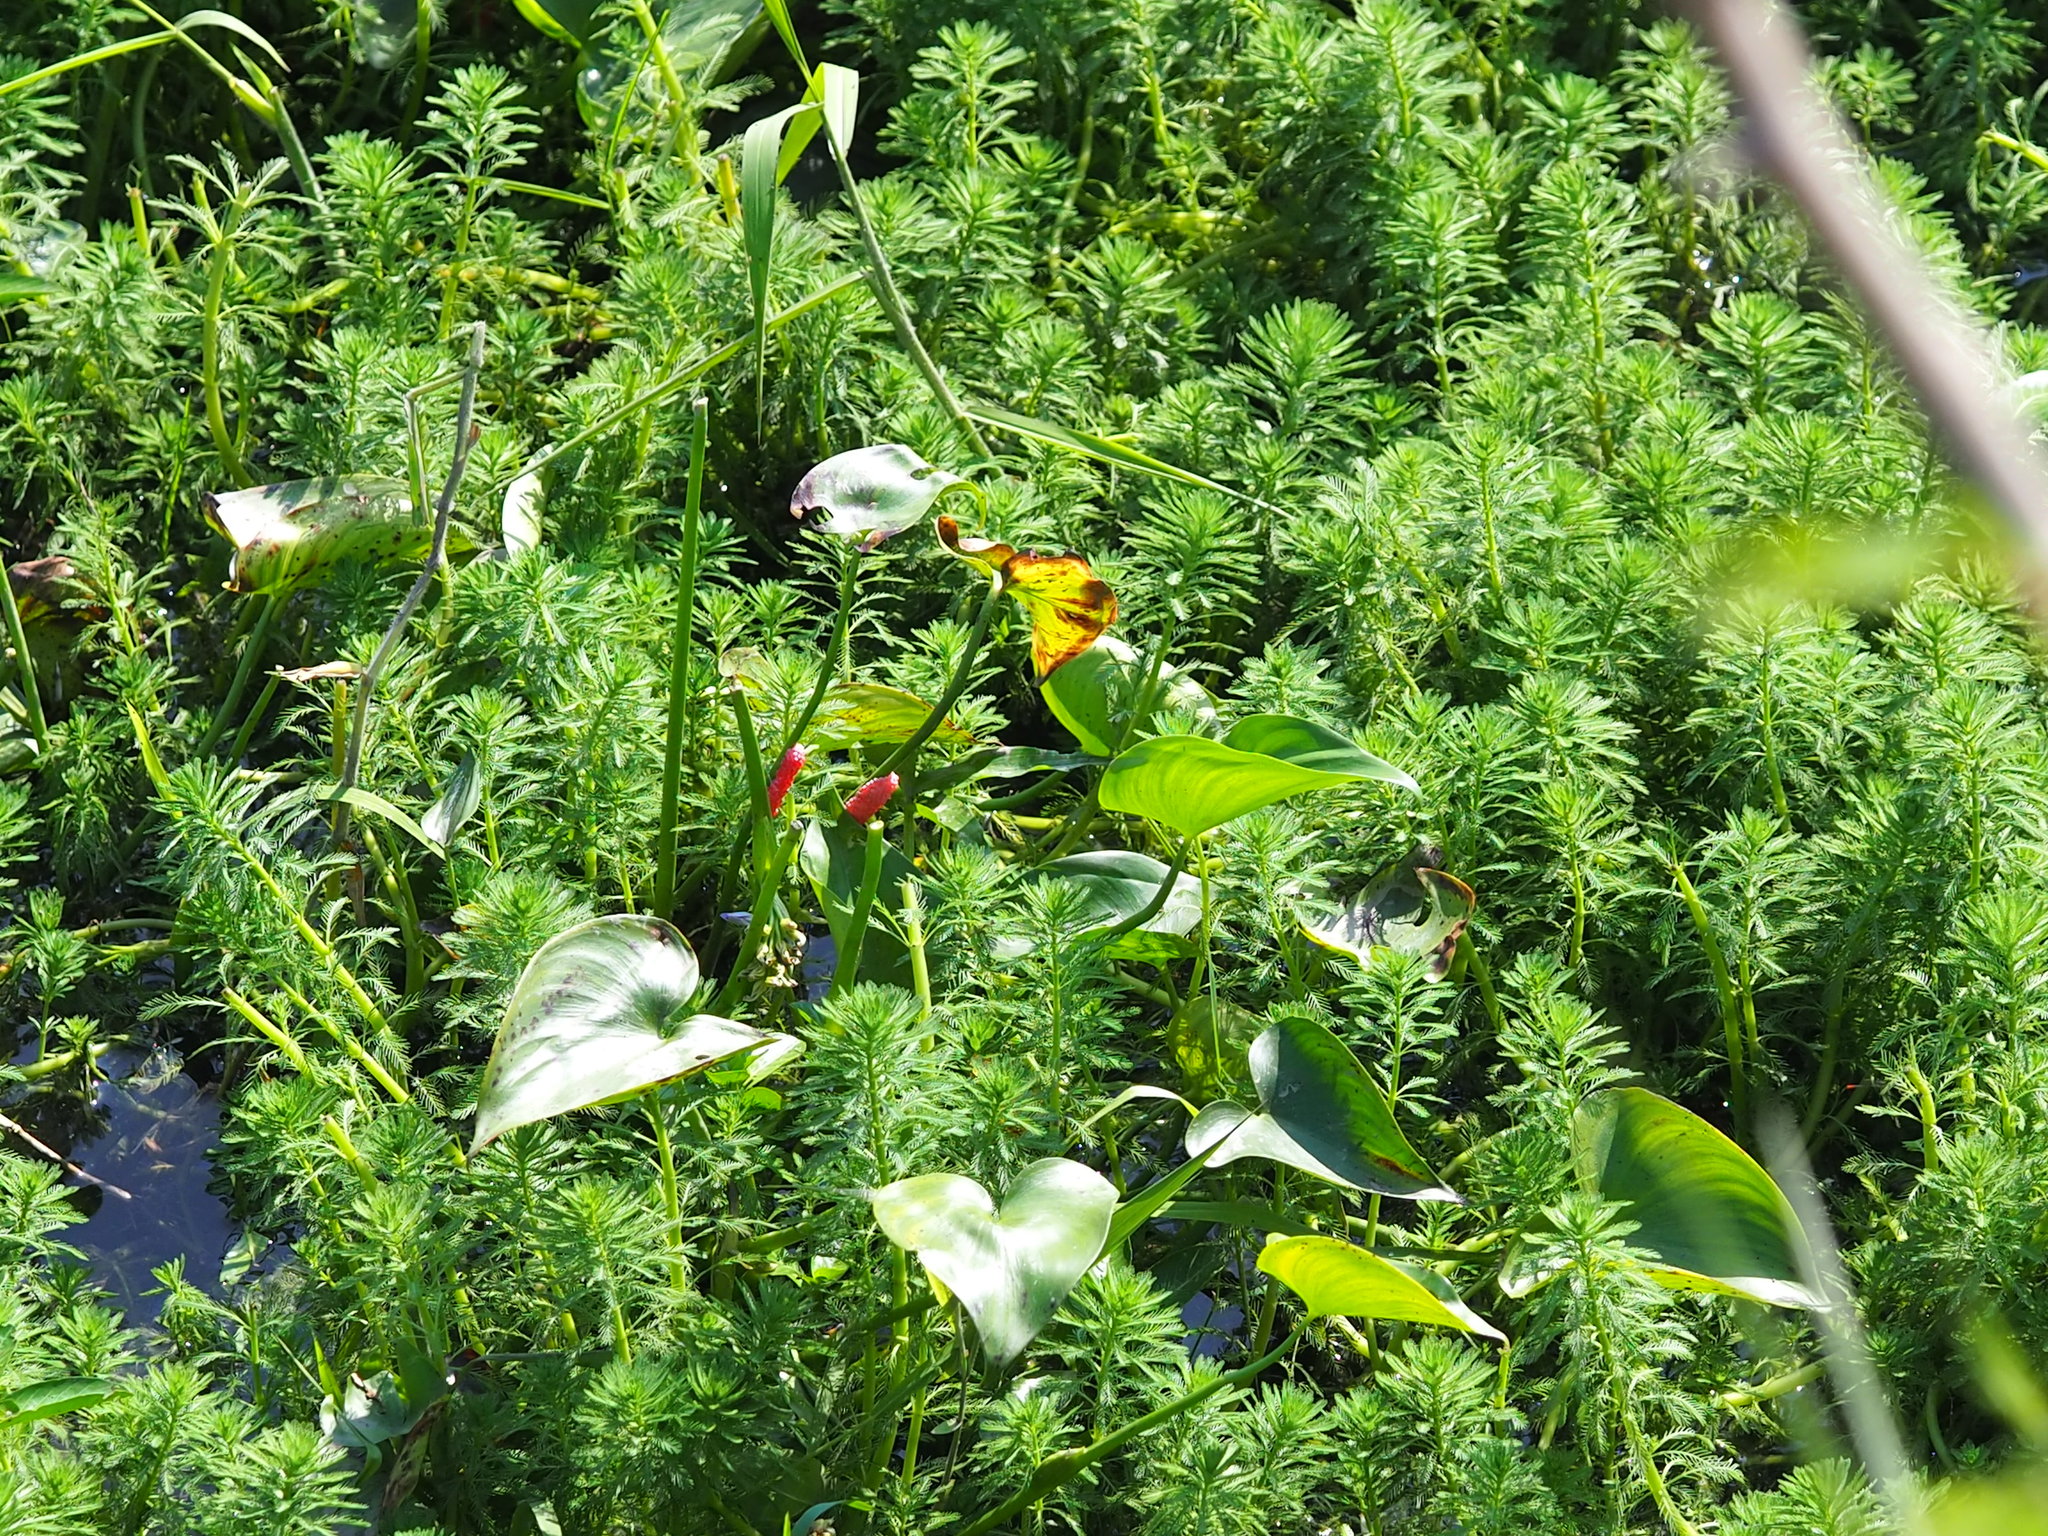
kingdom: Plantae
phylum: Tracheophyta
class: Liliopsida
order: Commelinales
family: Pontederiaceae
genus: Pontederia
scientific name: Pontederia vaginalis
